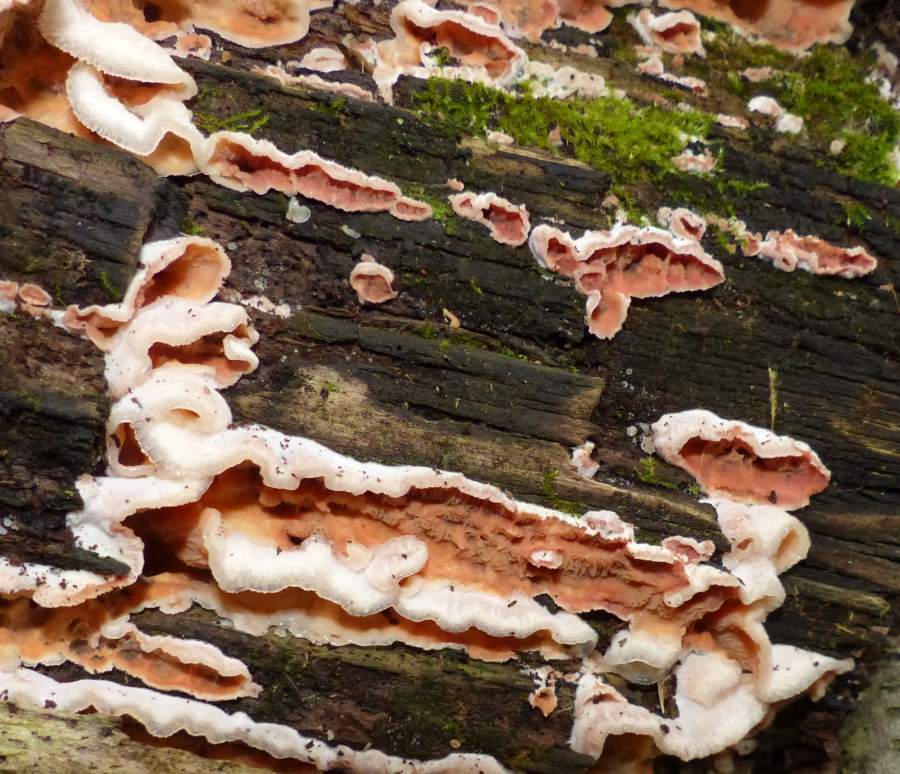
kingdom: Fungi
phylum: Basidiomycota
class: Agaricomycetes
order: Polyporales
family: Meruliaceae
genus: Phlebia
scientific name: Phlebia tremellosa
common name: Jelly rot
